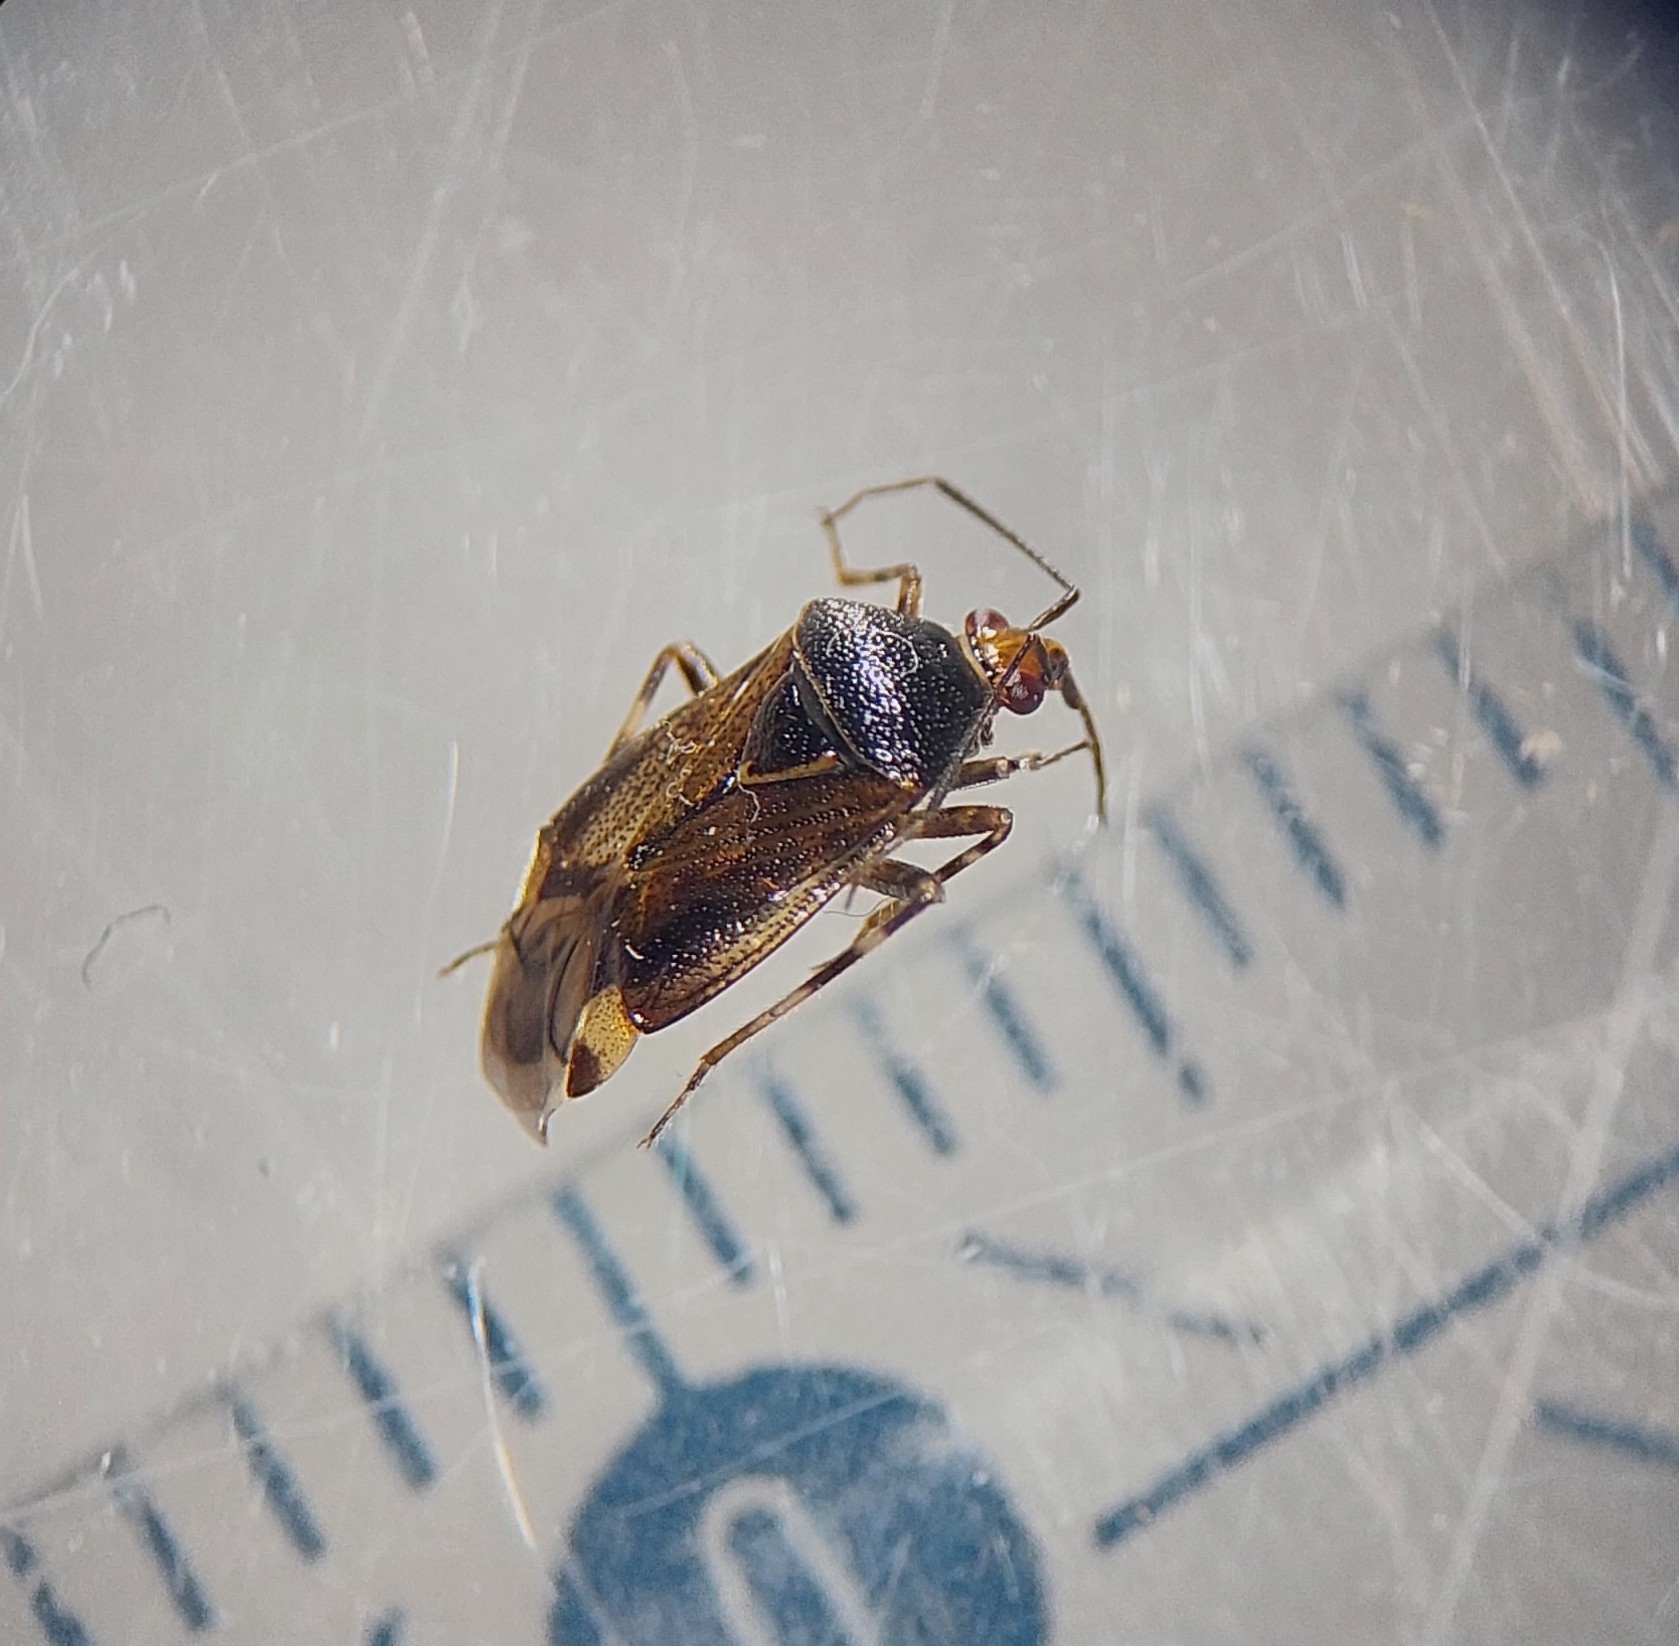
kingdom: Animalia
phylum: Arthropoda
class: Insecta
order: Hemiptera
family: Miridae
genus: Deraeocoris
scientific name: Deraeocoris flavilinea
